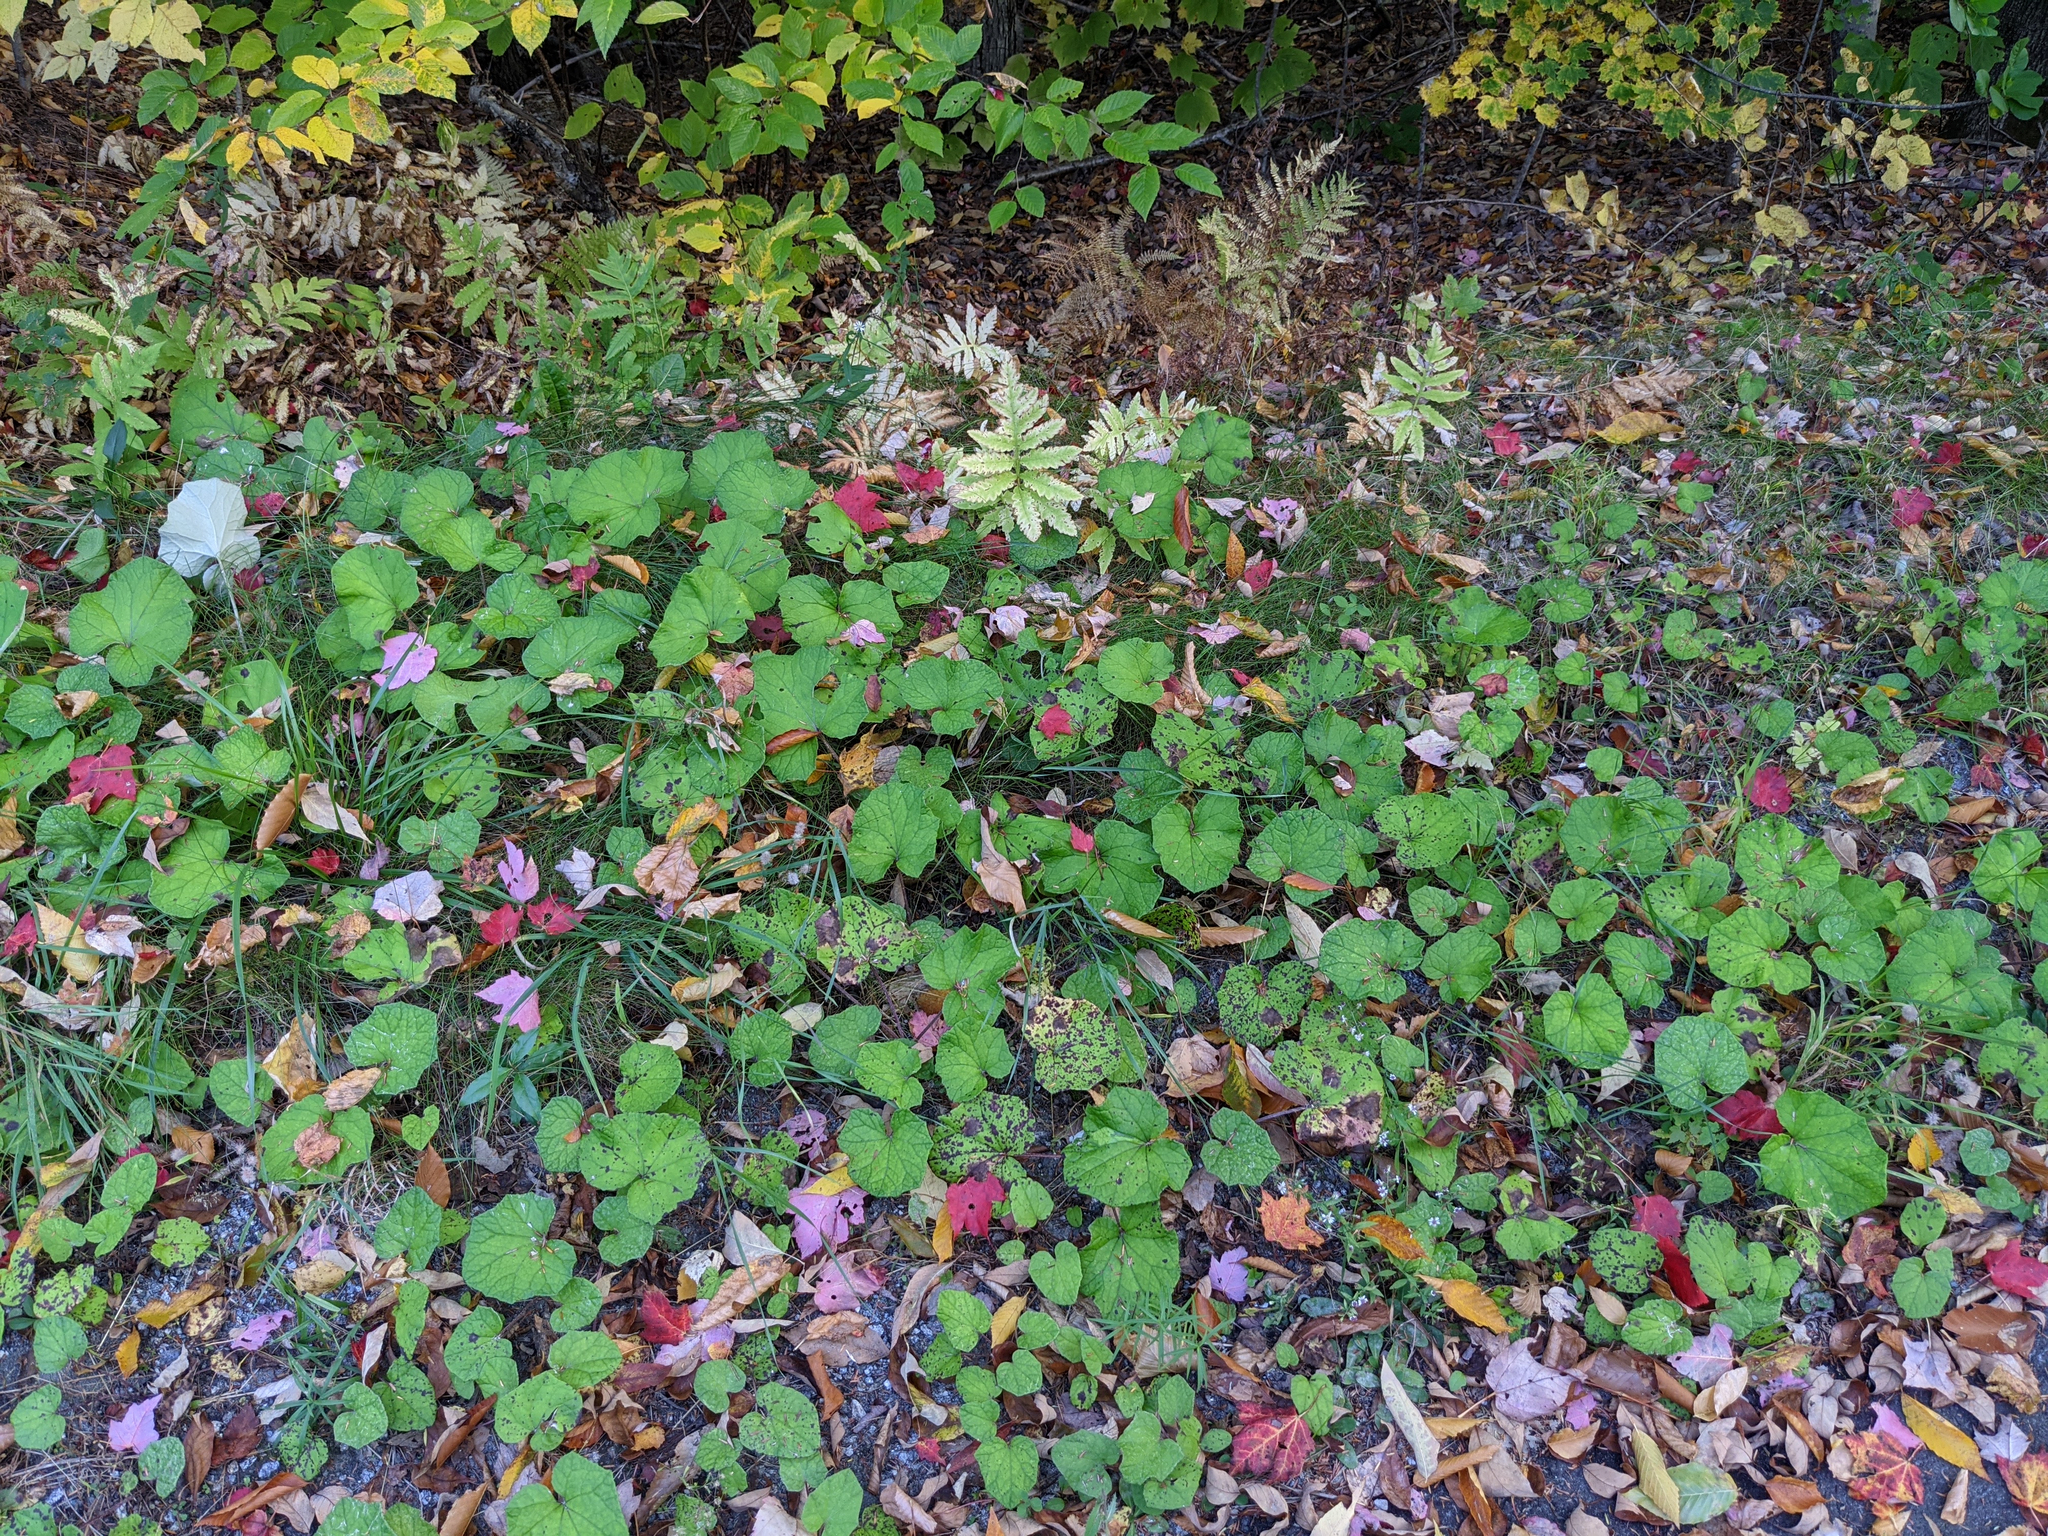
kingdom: Plantae
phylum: Tracheophyta
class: Magnoliopsida
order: Asterales
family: Asteraceae
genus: Tussilago
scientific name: Tussilago farfara
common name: Coltsfoot
